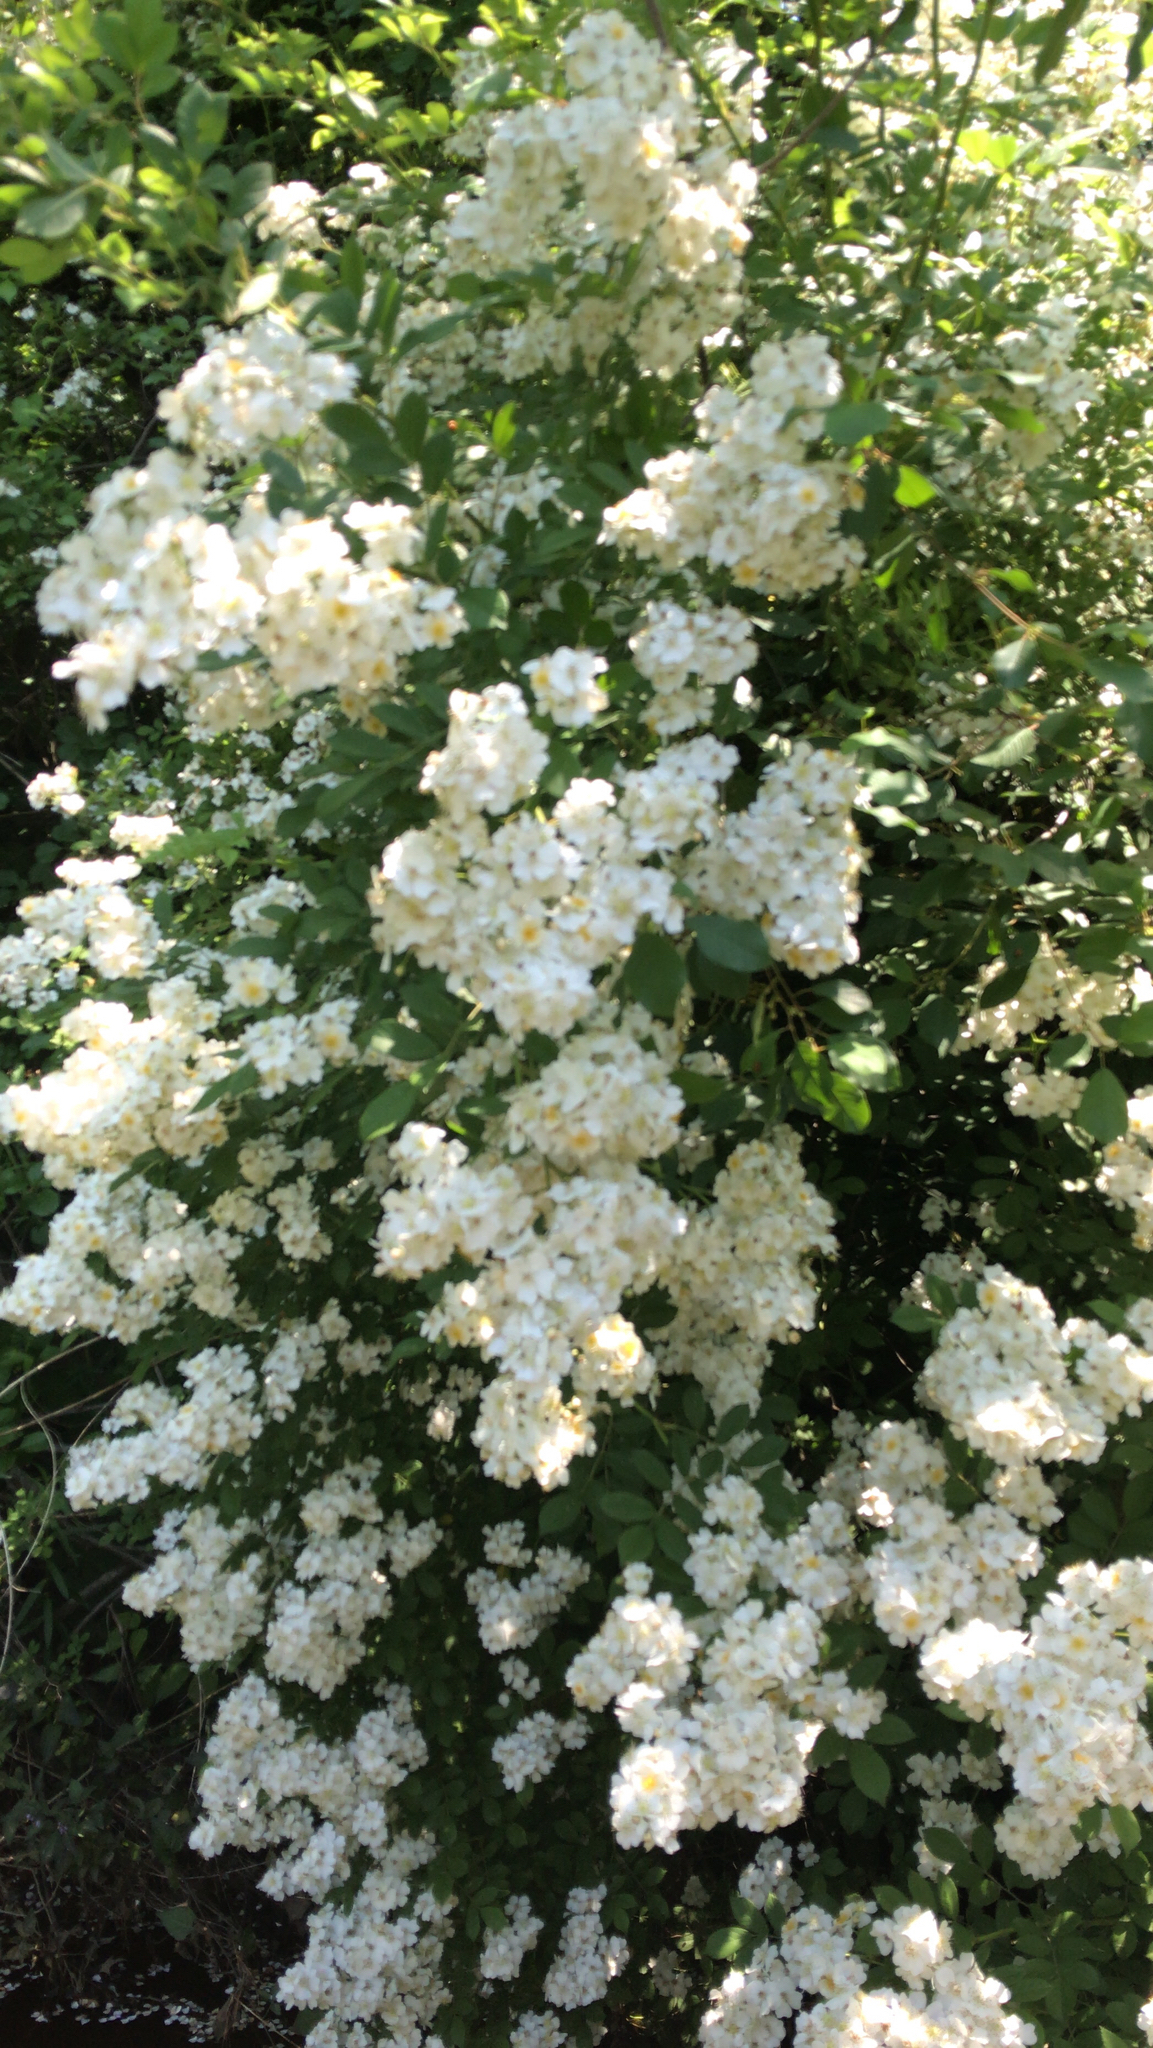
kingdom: Plantae
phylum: Tracheophyta
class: Magnoliopsida
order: Rosales
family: Rosaceae
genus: Rosa
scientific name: Rosa multiflora
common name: Multiflora rose
